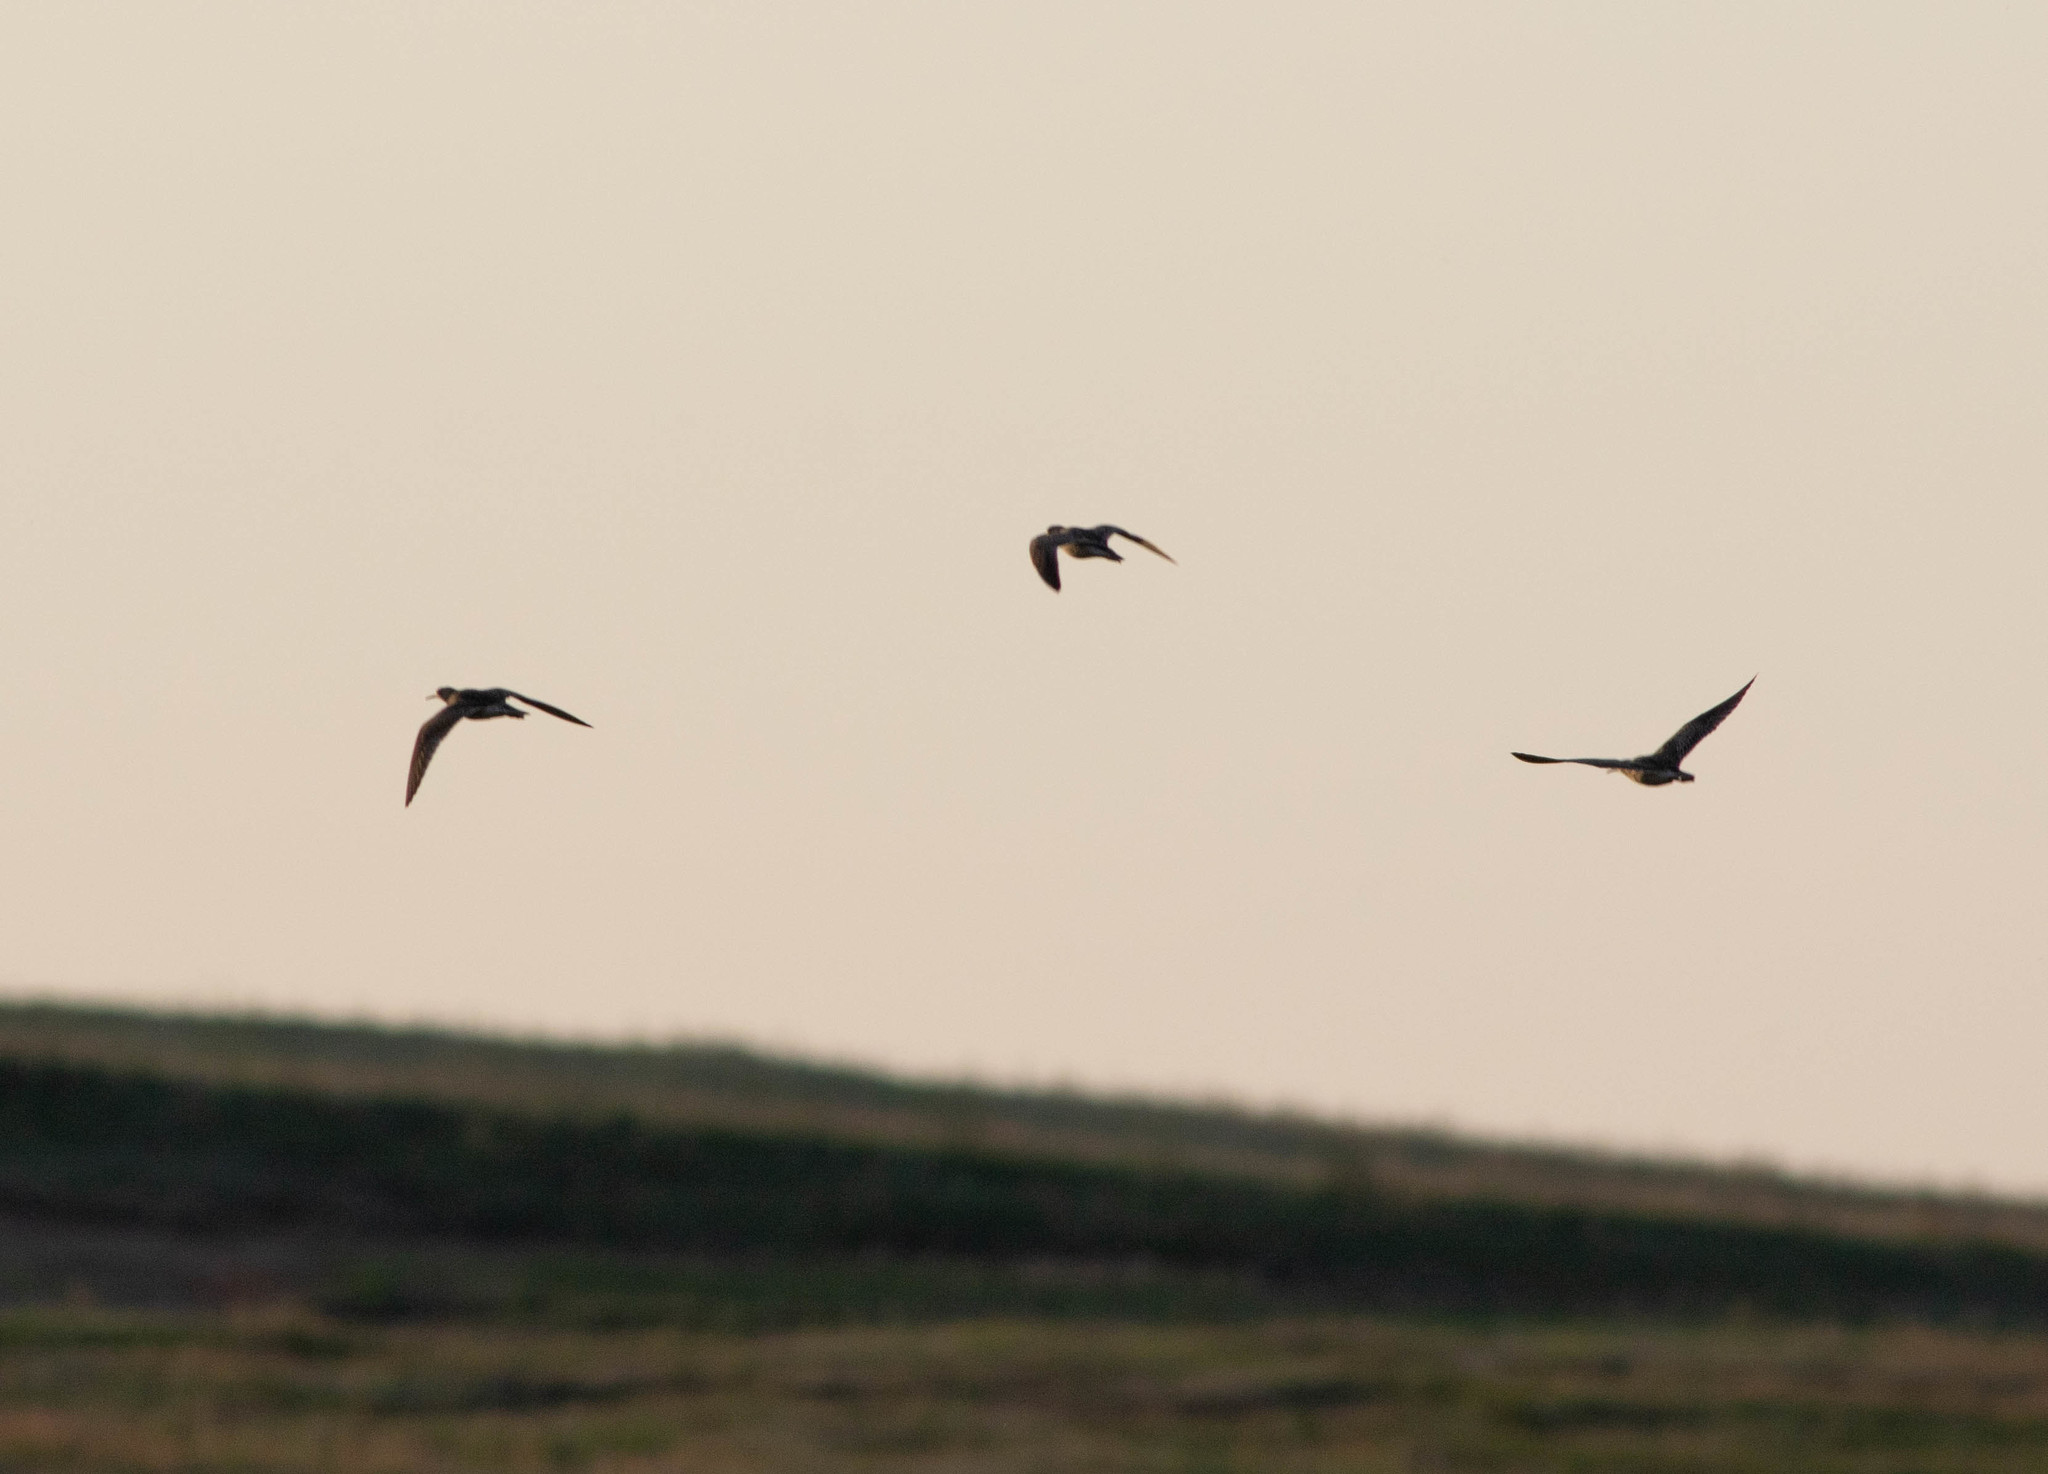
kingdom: Animalia
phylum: Chordata
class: Aves
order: Charadriiformes
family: Scolopacidae
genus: Bartramia
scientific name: Bartramia longicauda
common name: Upland sandpiper
